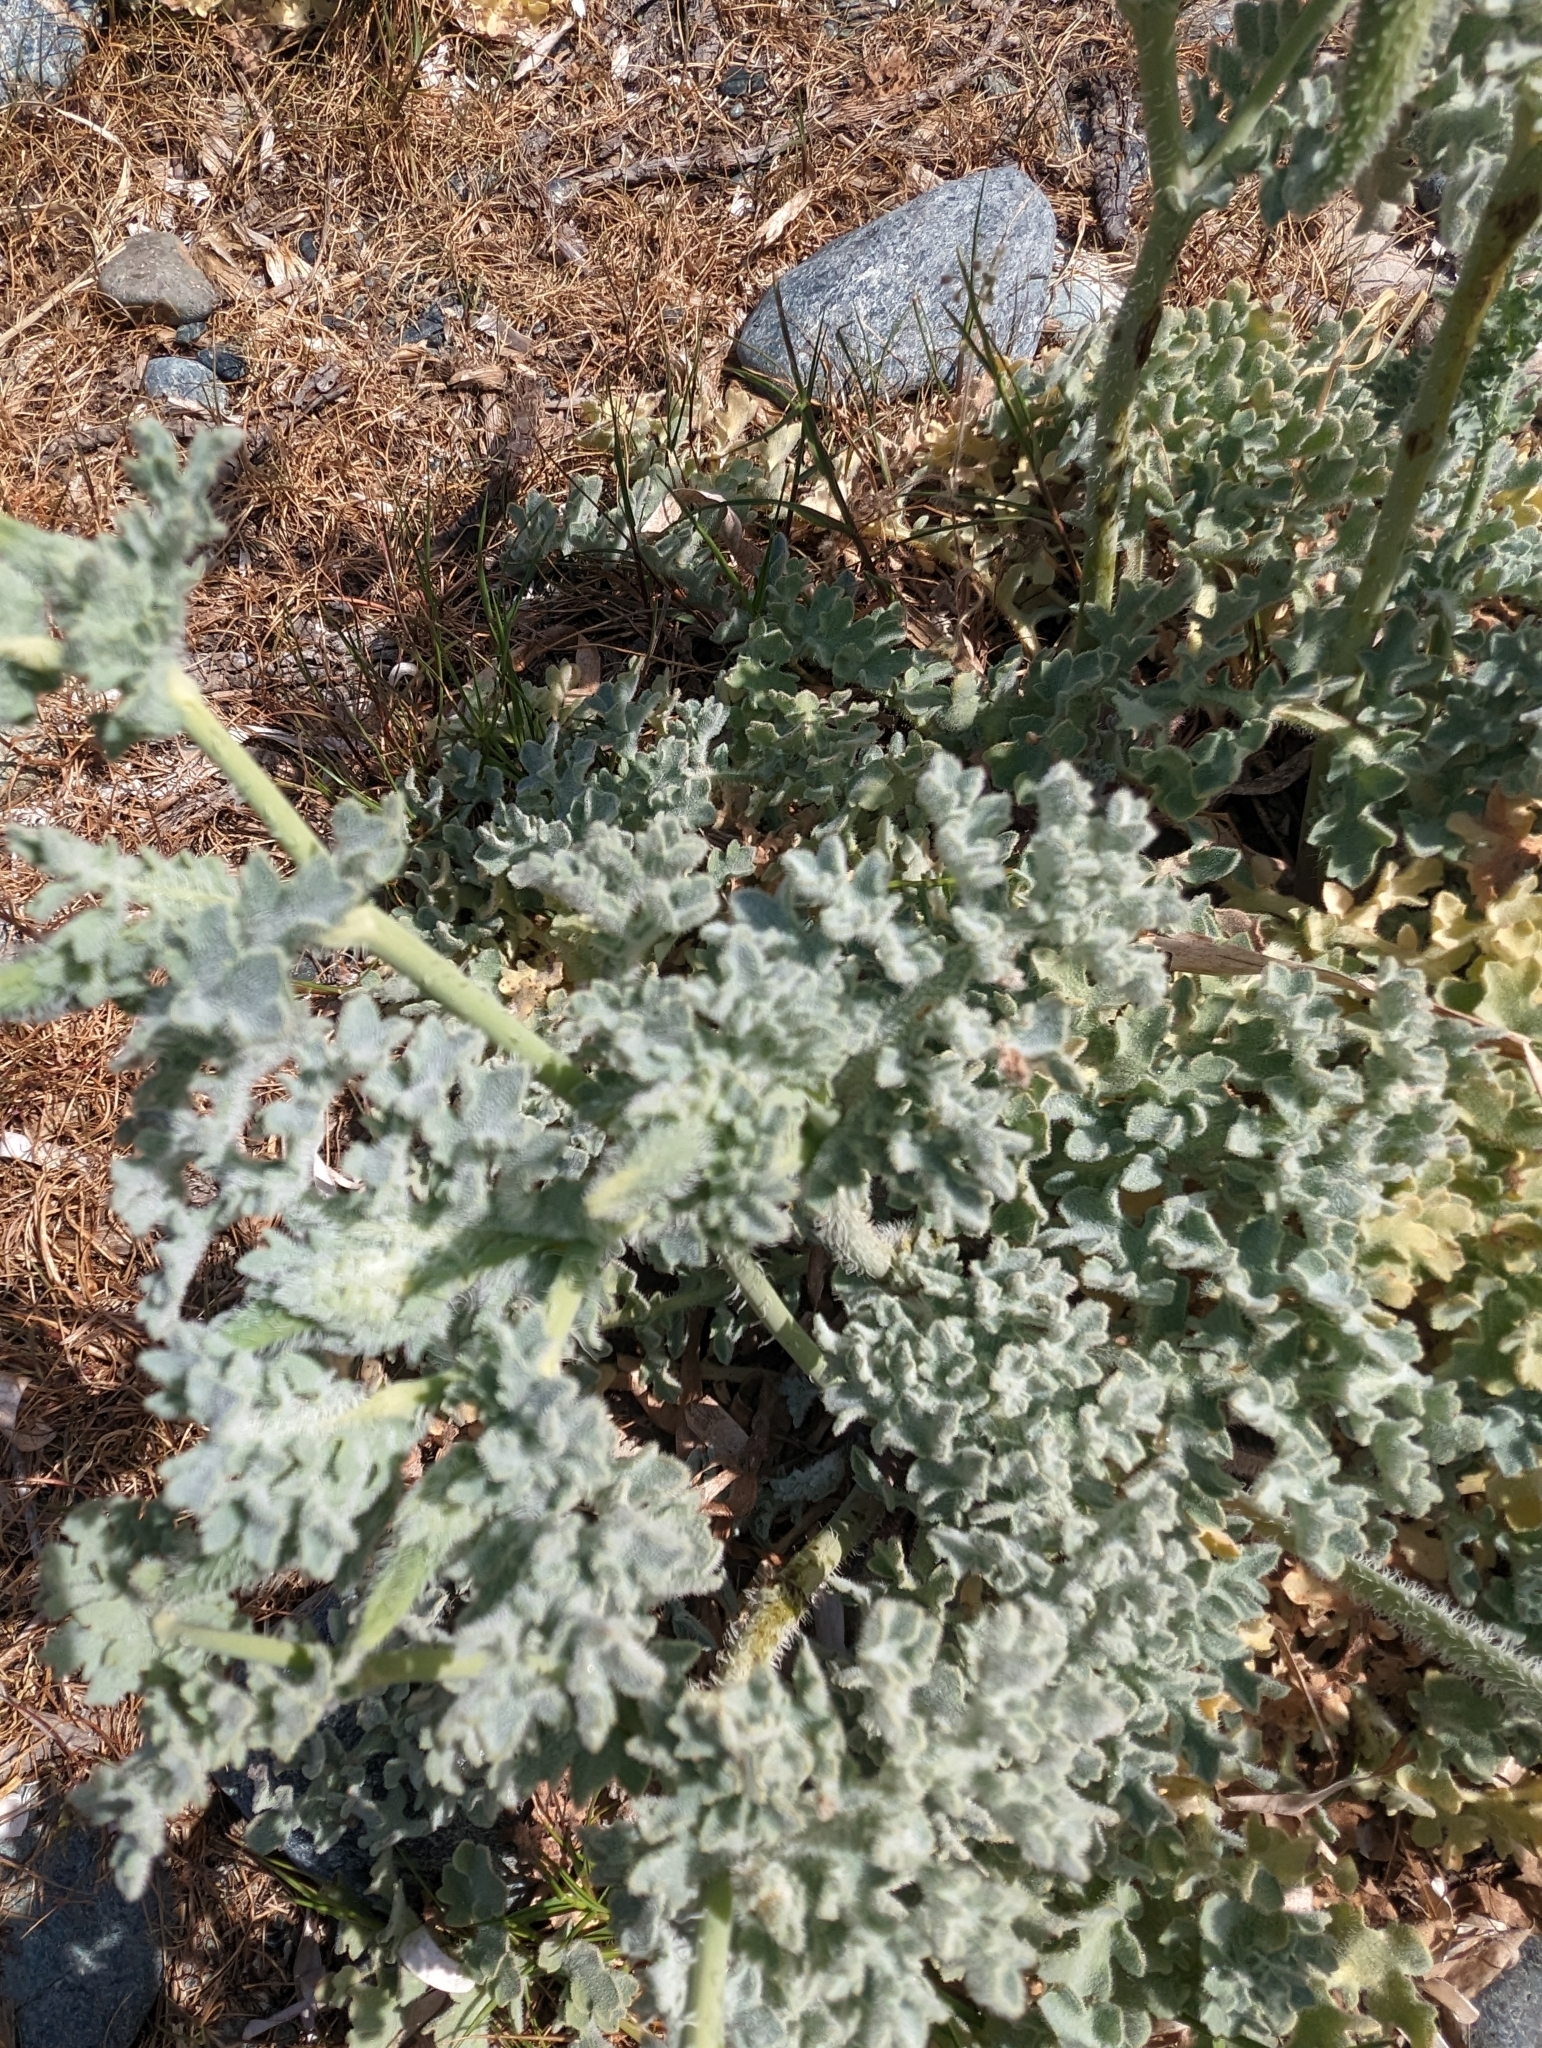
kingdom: Plantae
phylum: Tracheophyta
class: Magnoliopsida
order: Ranunculales
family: Papaveraceae
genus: Glaucium
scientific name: Glaucium flavum
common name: Yellow horned-poppy
